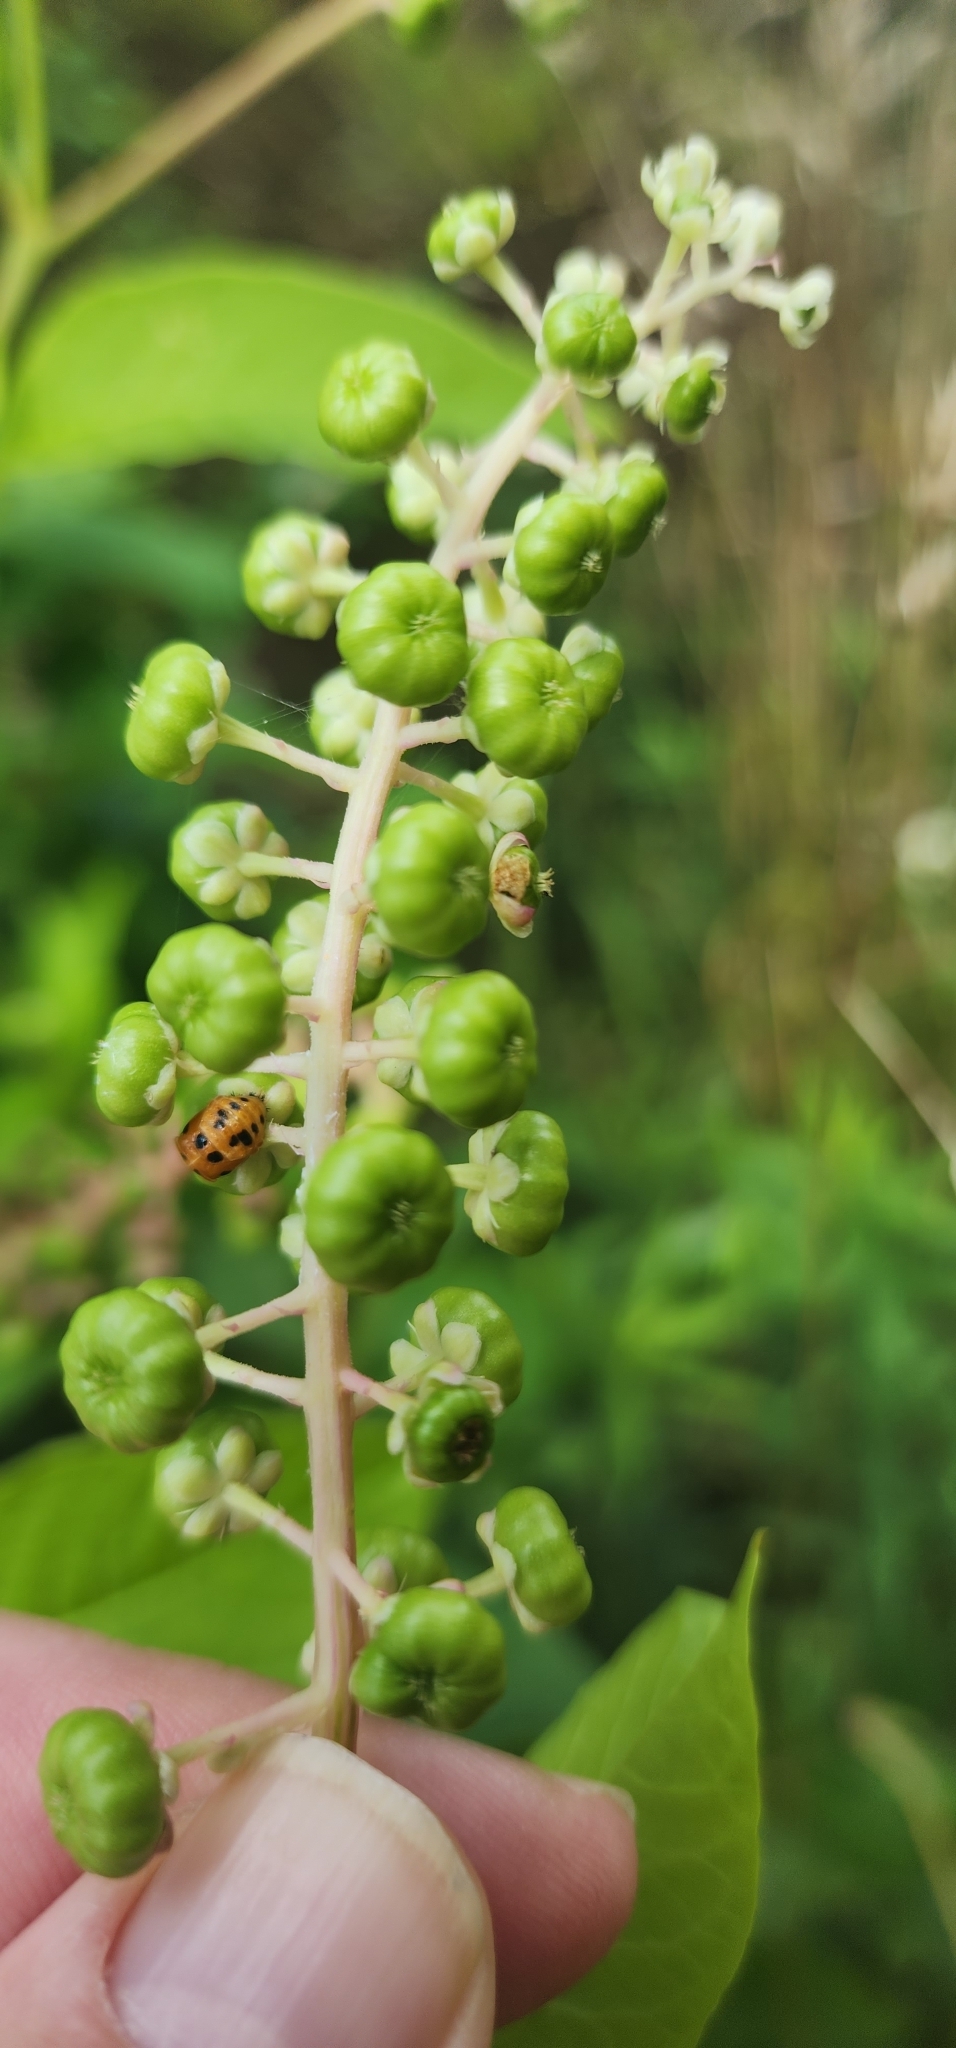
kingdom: Animalia
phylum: Arthropoda
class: Insecta
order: Coleoptera
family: Coccinellidae
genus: Harmonia
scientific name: Harmonia axyridis
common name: Harlequin ladybird
